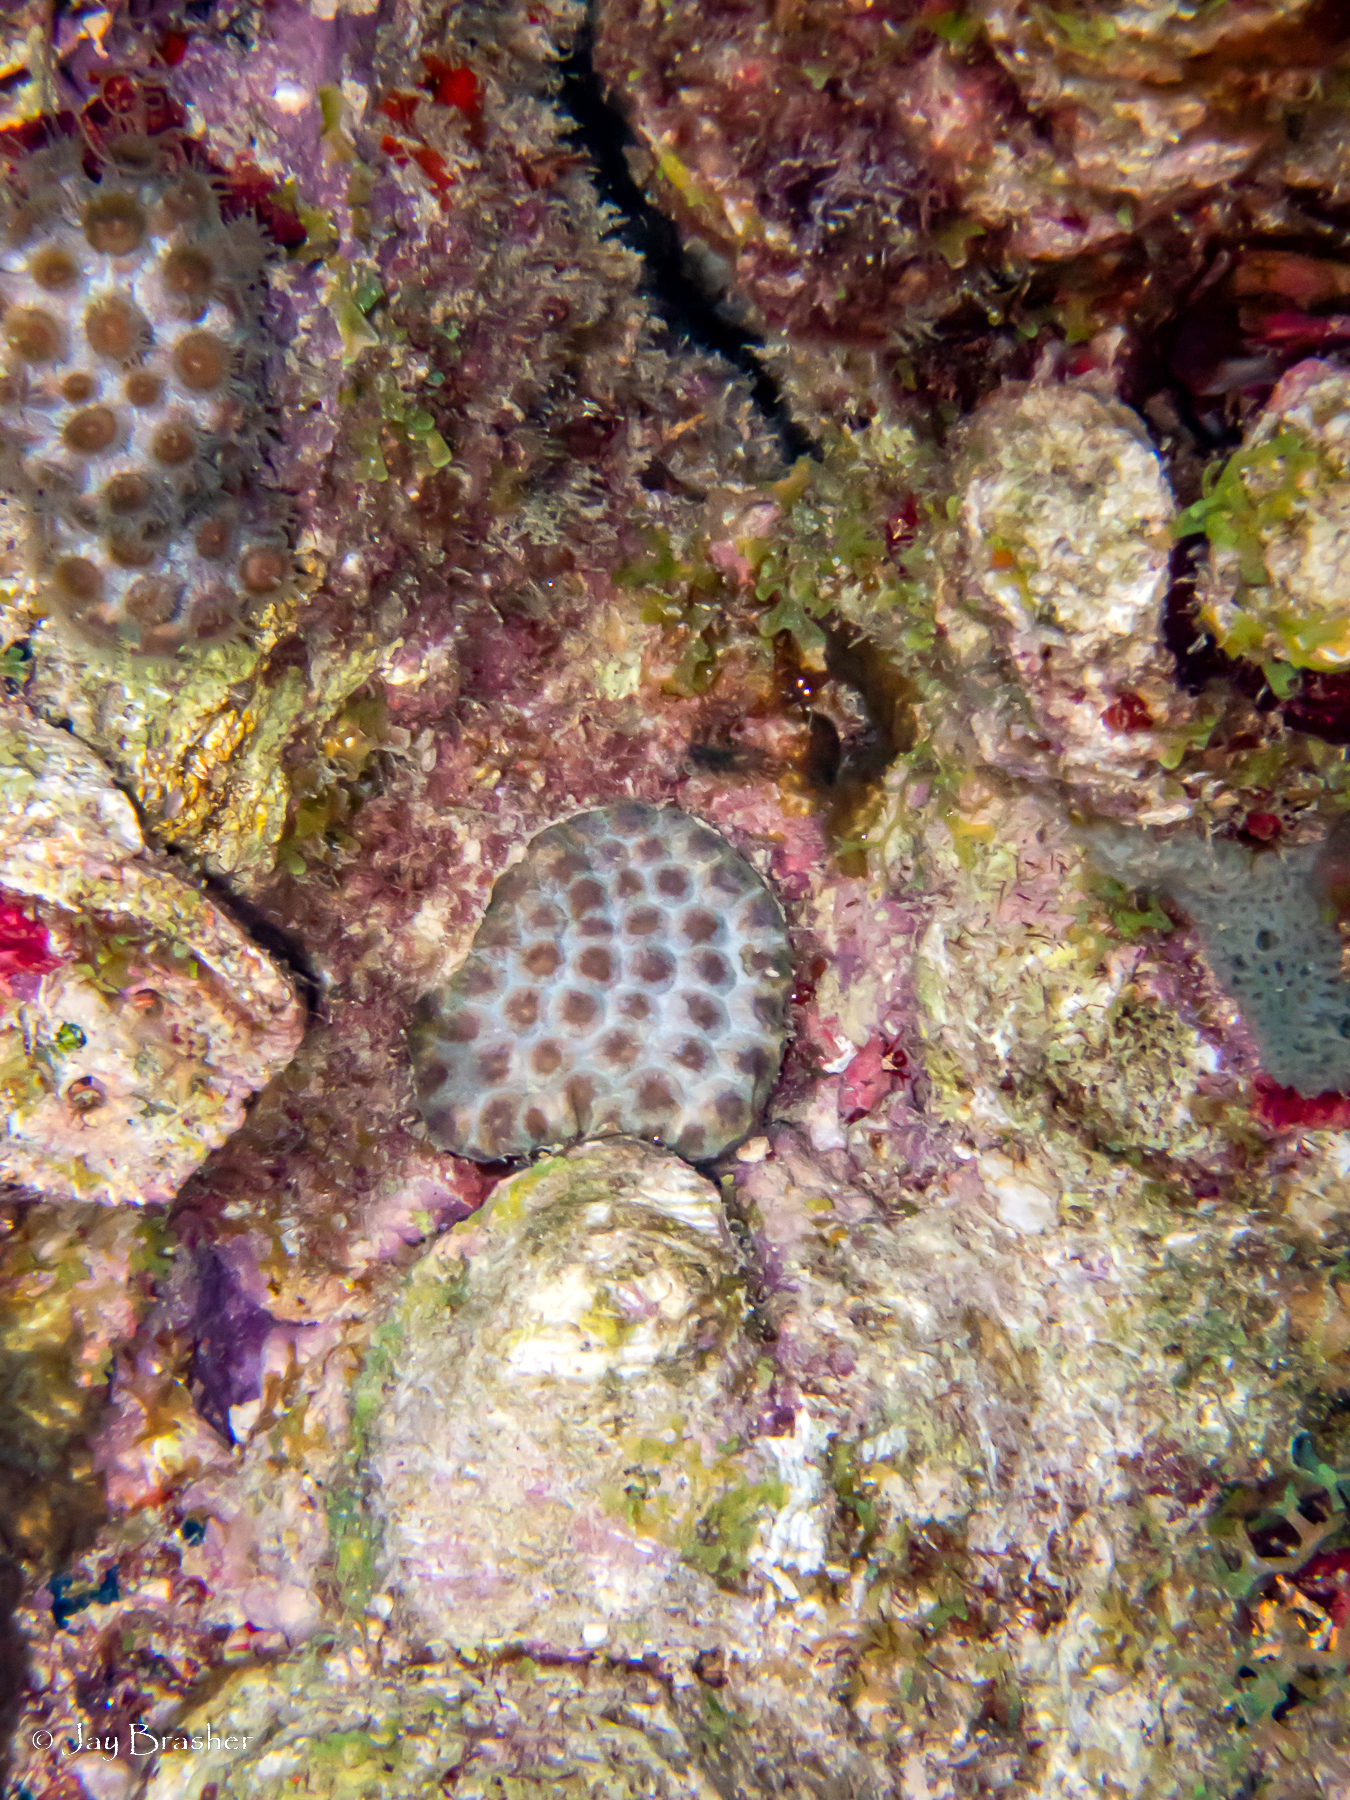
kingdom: Animalia
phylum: Cnidaria
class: Anthozoa
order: Scleractinia
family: Montastraeidae
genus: Montastraea
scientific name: Montastraea cavernosa
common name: Great star coral
